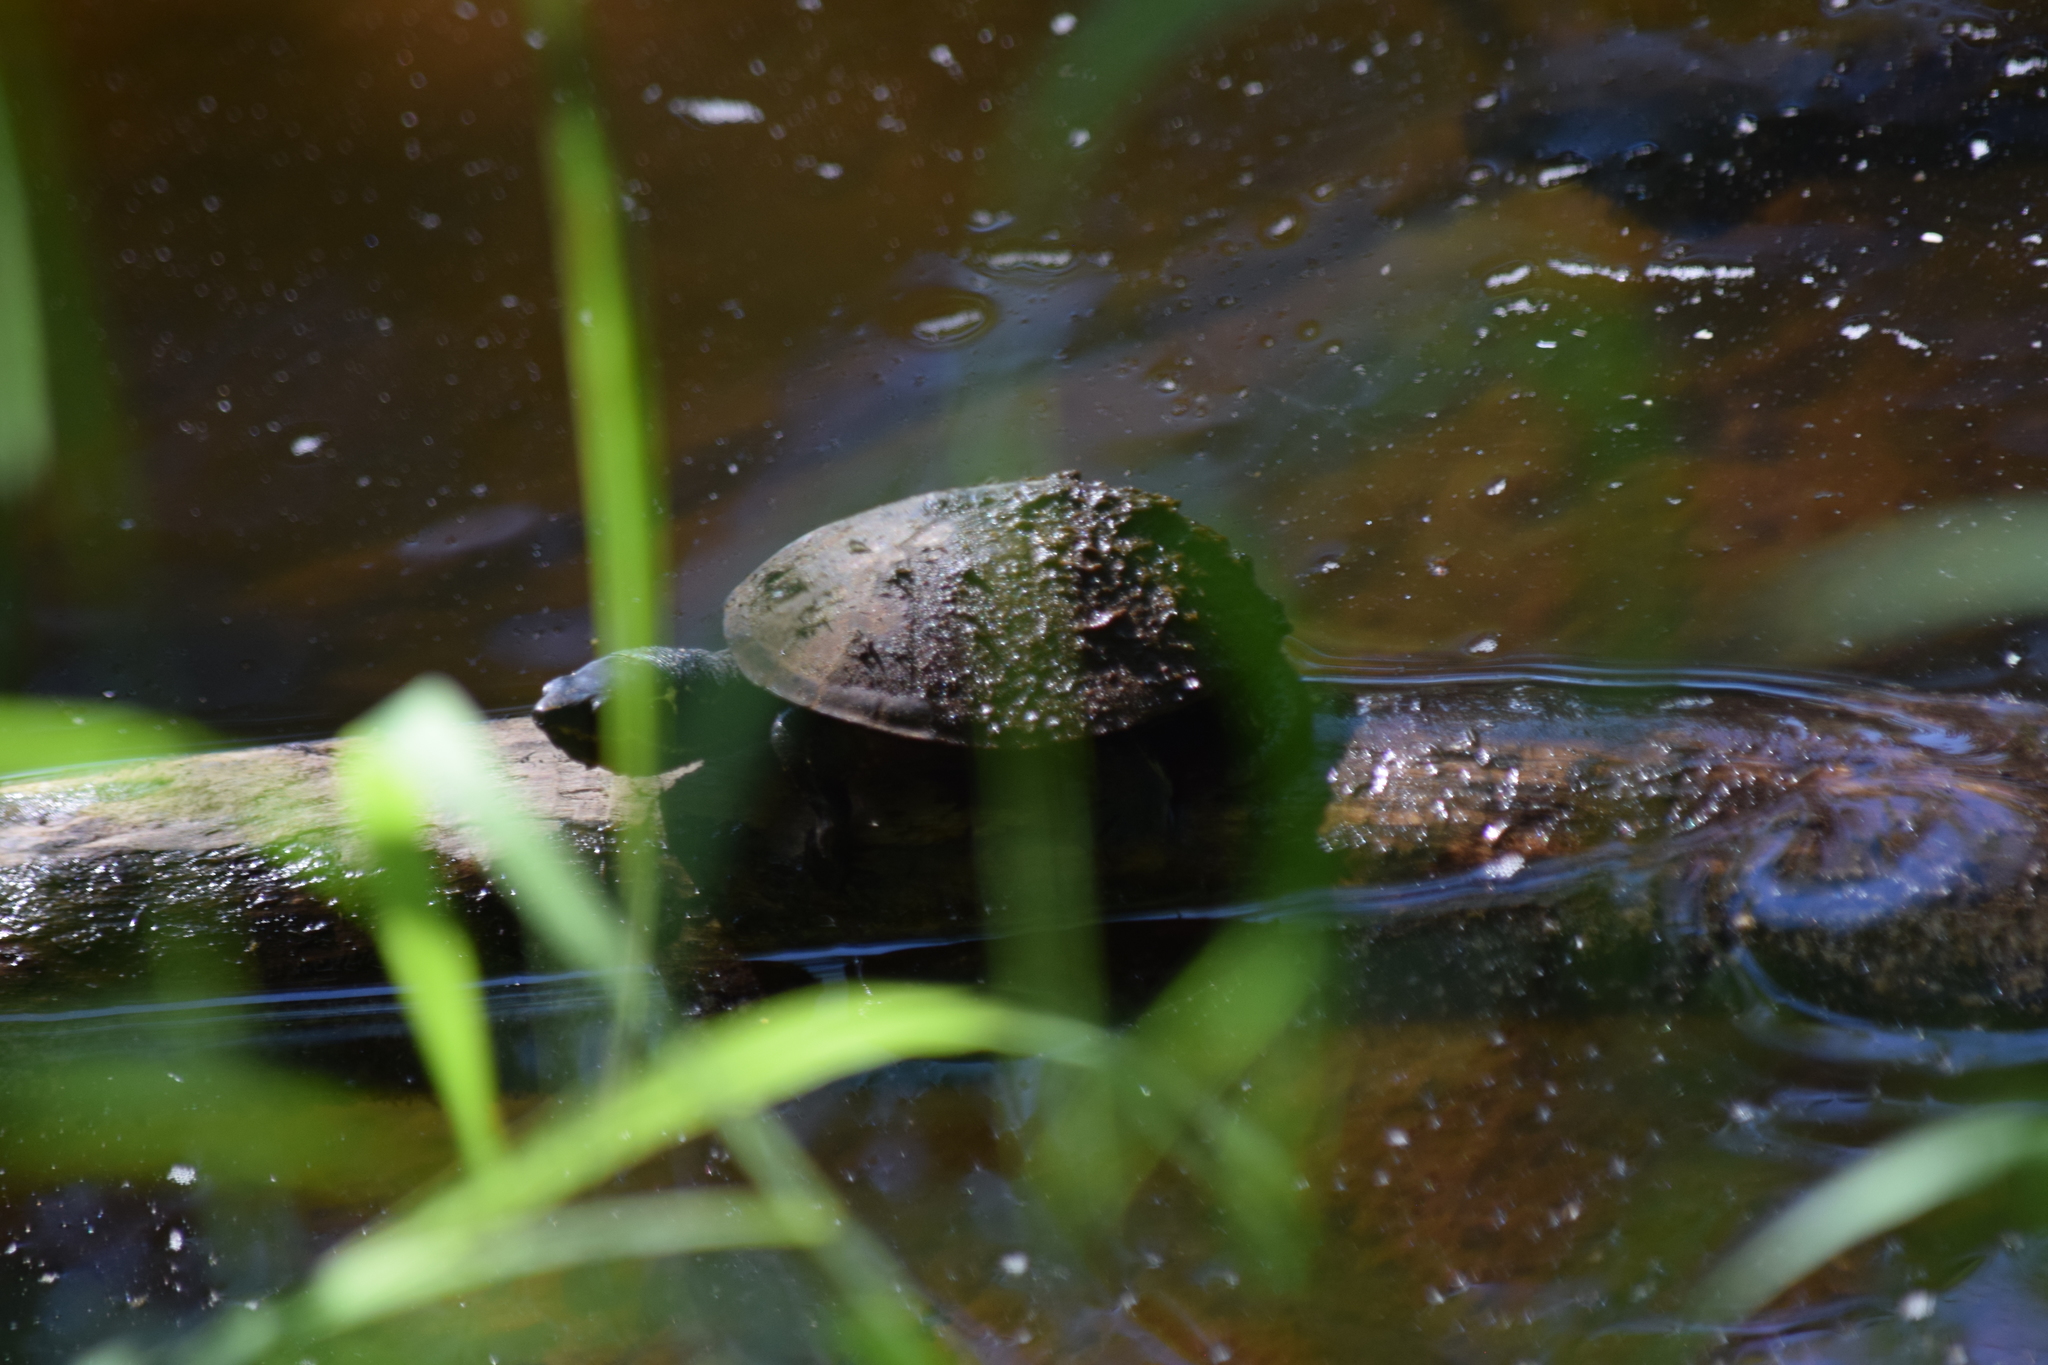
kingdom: Animalia
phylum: Chordata
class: Testudines
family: Kinosternidae
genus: Sternotherus
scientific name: Sternotherus odoratus
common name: Common musk turtle
